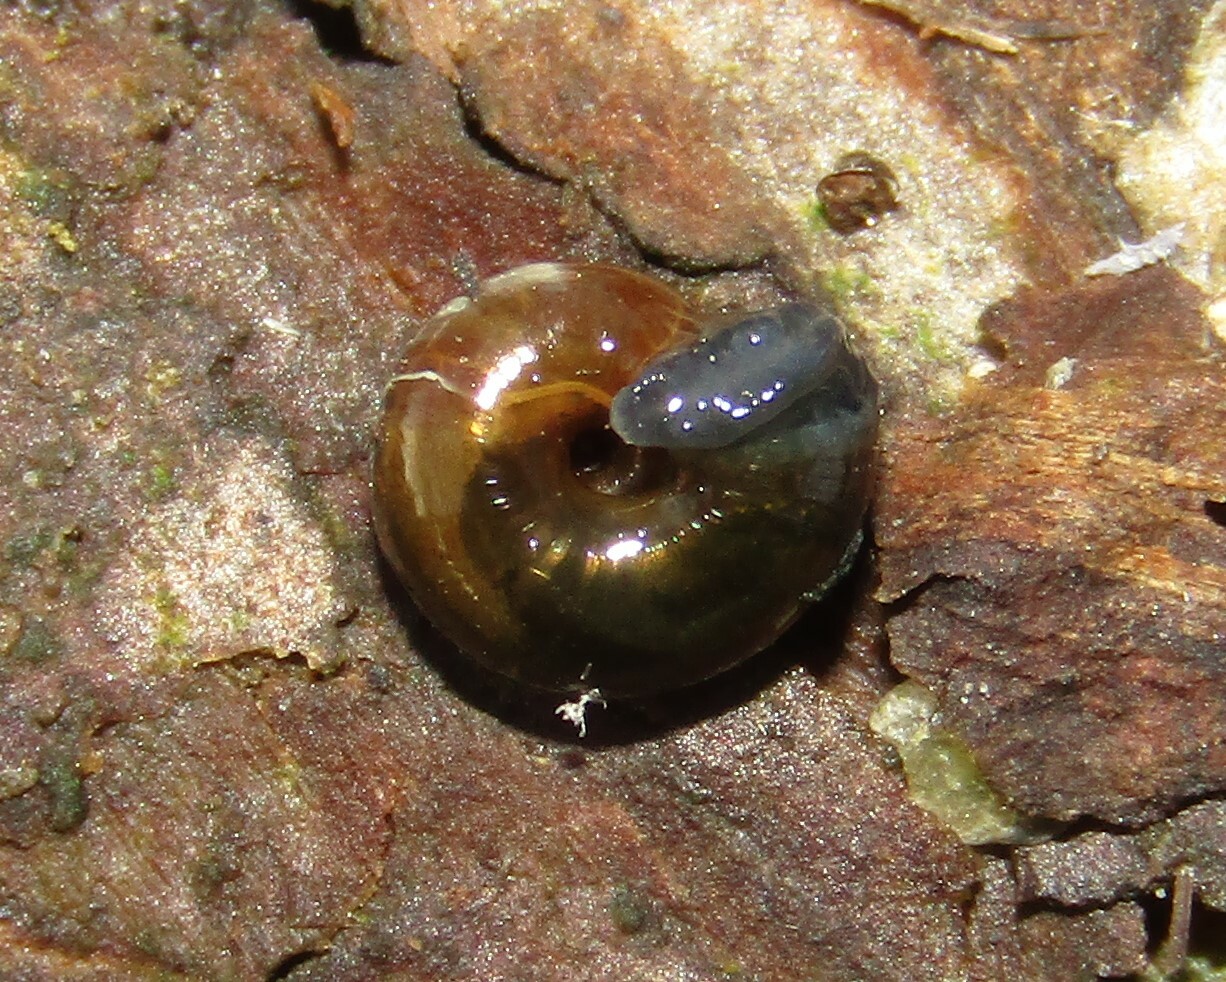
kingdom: Animalia
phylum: Mollusca
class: Gastropoda
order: Stylommatophora
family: Gastrodontidae
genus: Zonitoides
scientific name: Zonitoides nitidus
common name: Shiny glass snail
